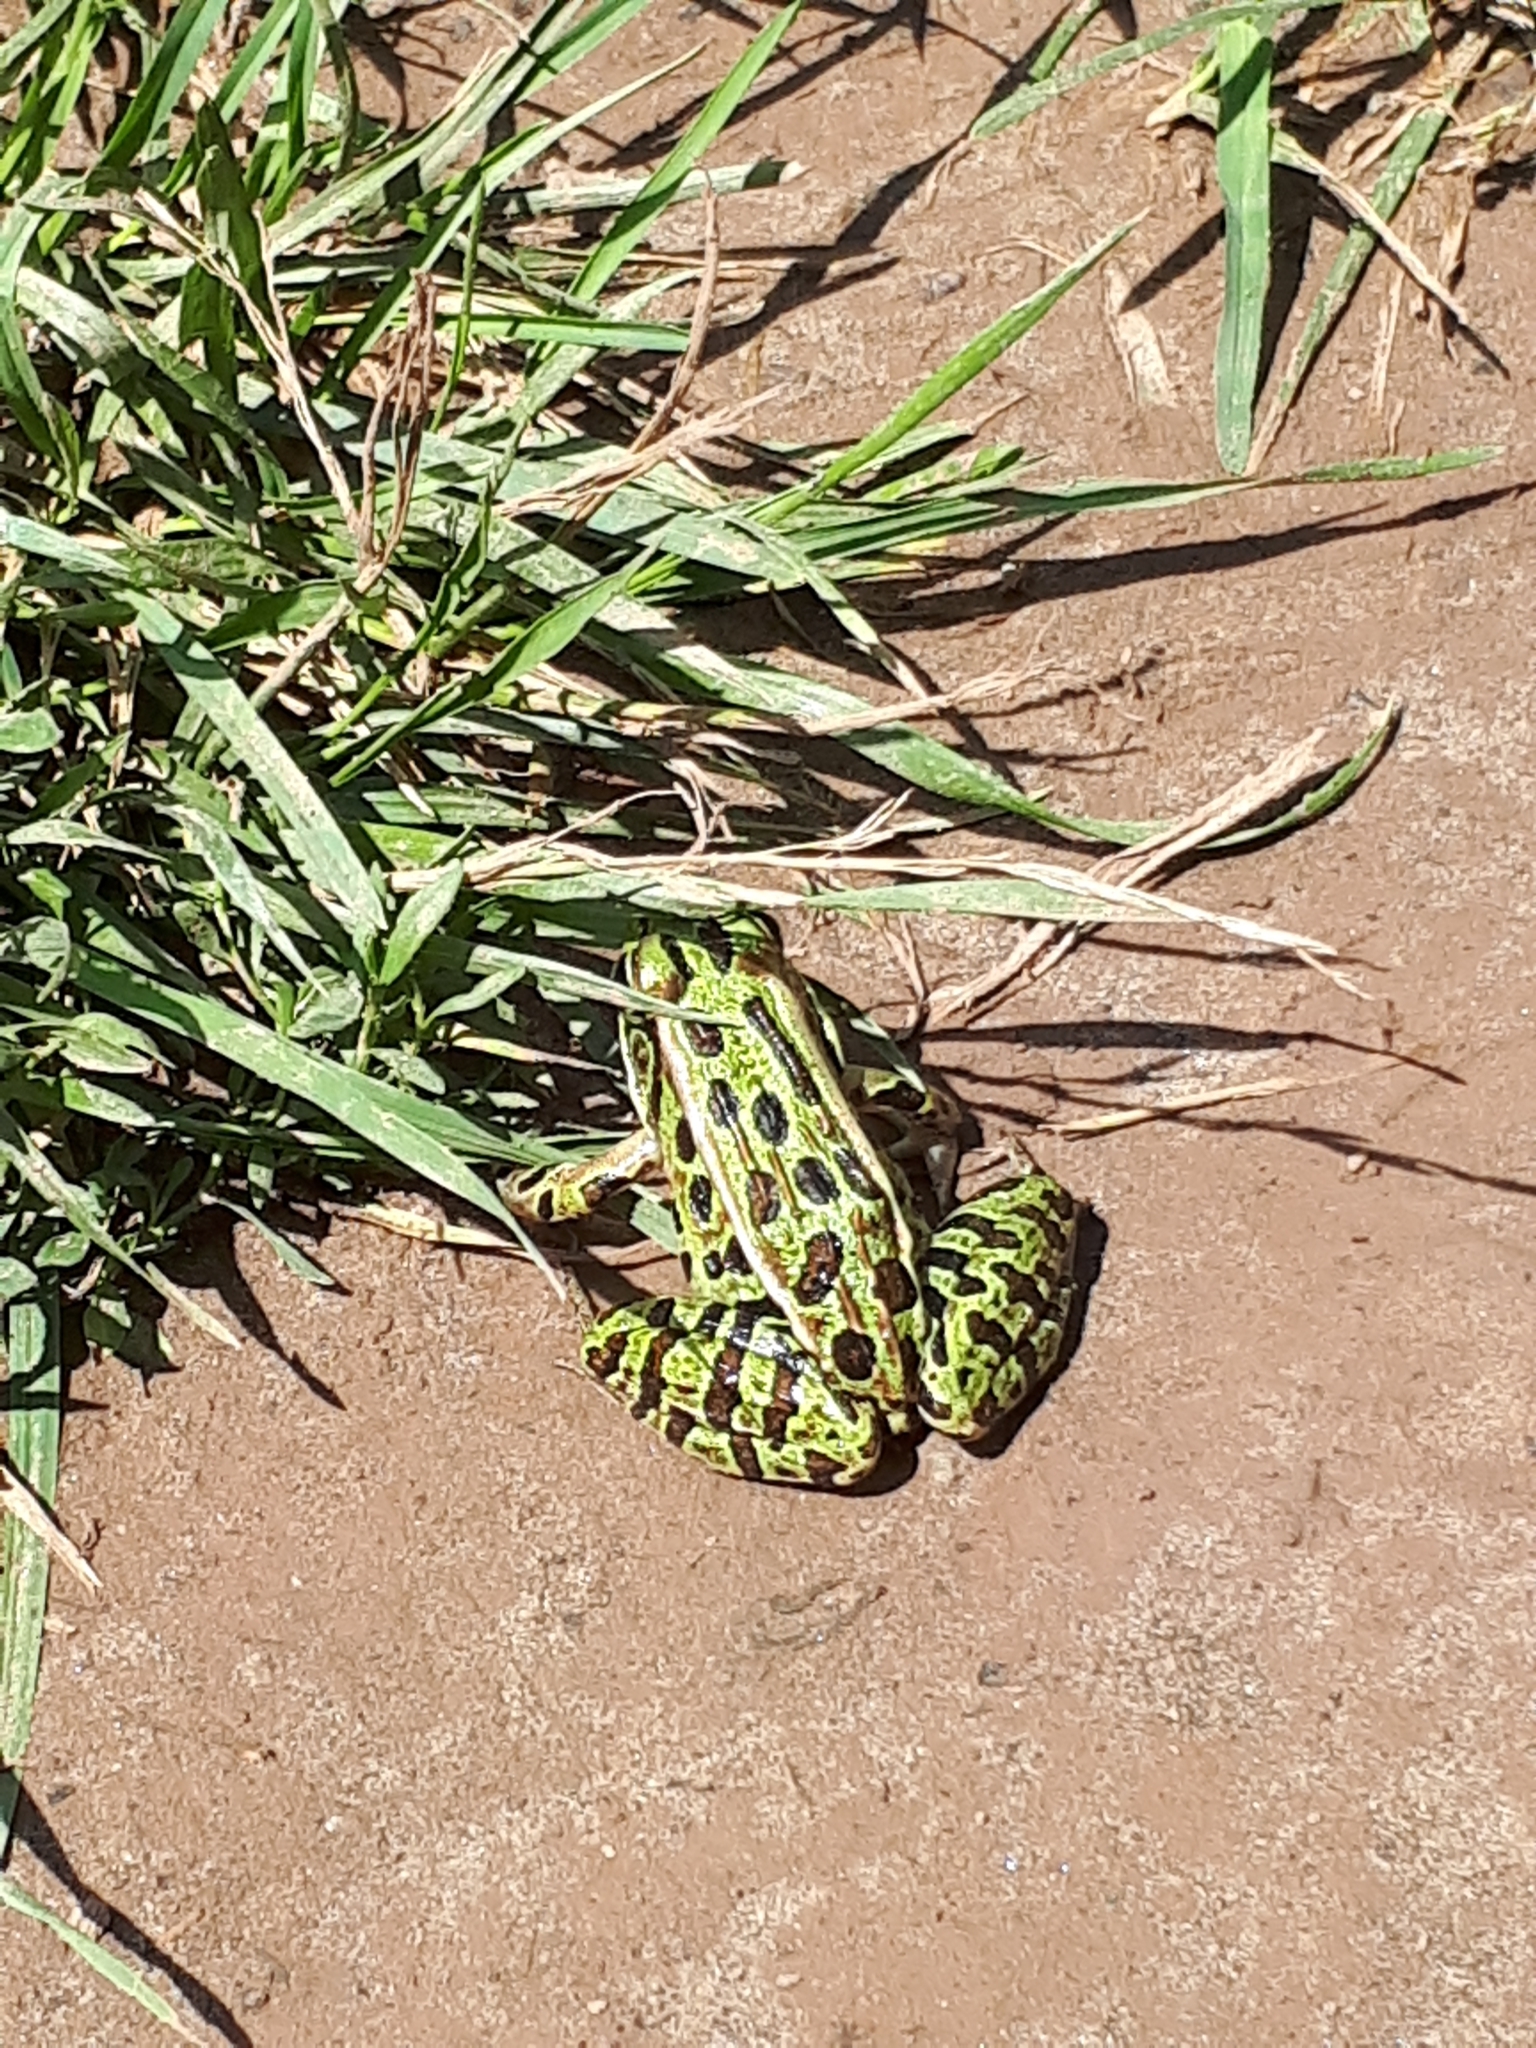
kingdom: Animalia
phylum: Chordata
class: Amphibia
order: Anura
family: Ranidae
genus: Lithobates
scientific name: Lithobates pipiens
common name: Northern leopard frog
